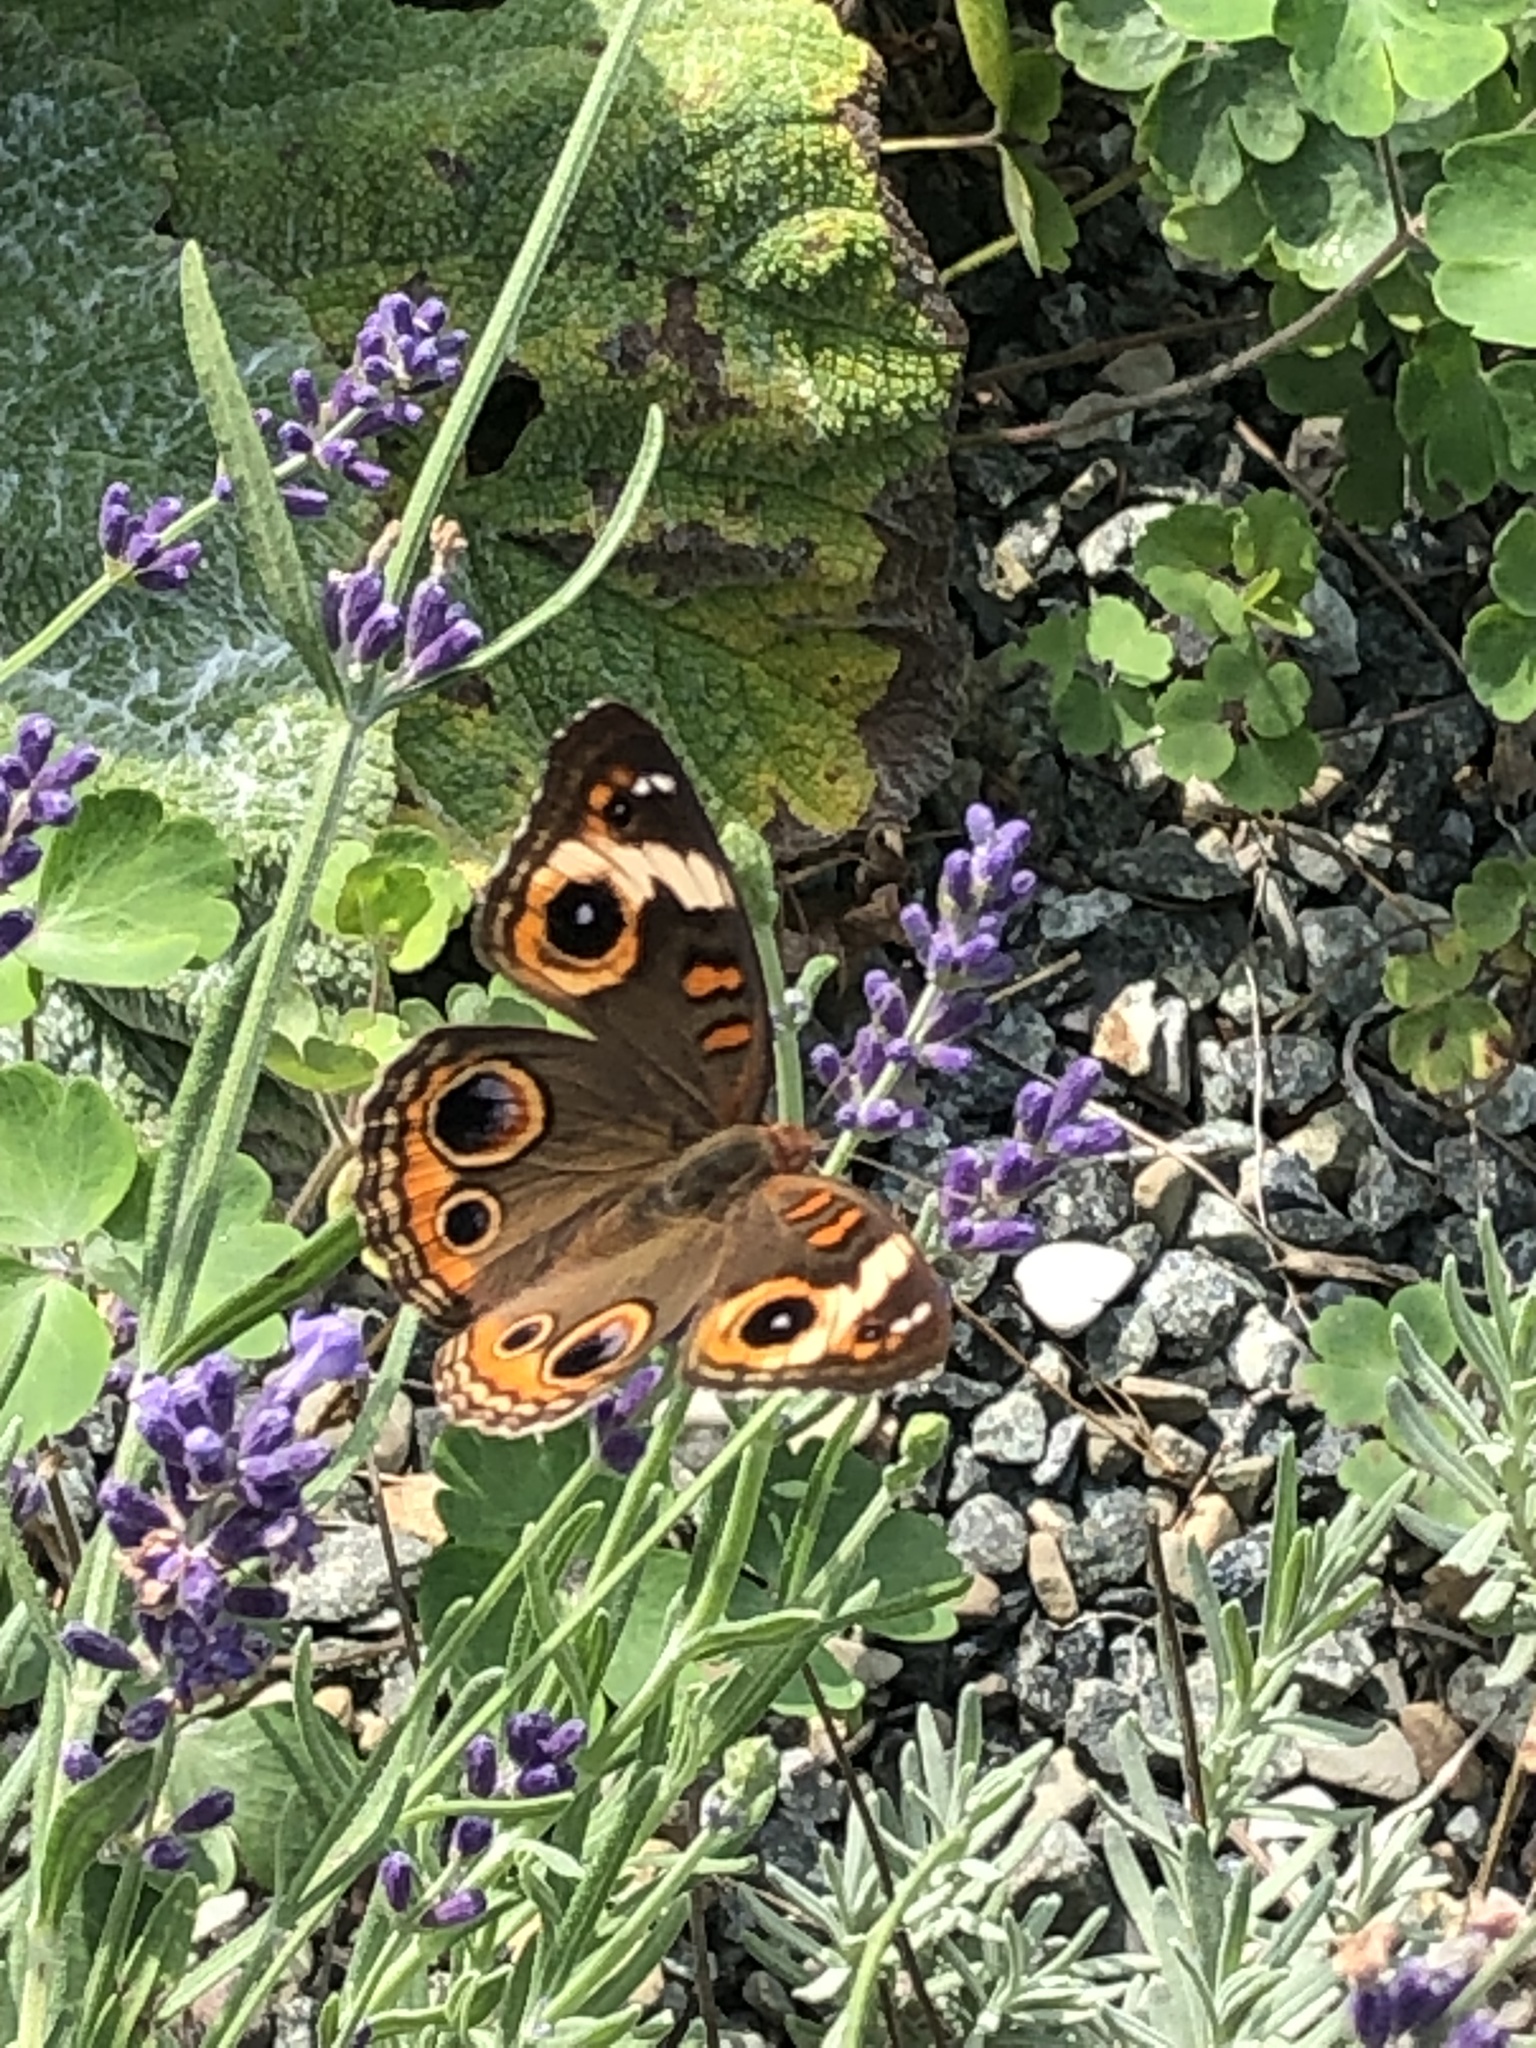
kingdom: Animalia
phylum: Arthropoda
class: Insecta
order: Lepidoptera
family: Nymphalidae
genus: Junonia
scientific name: Junonia coenia
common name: Common buckeye
